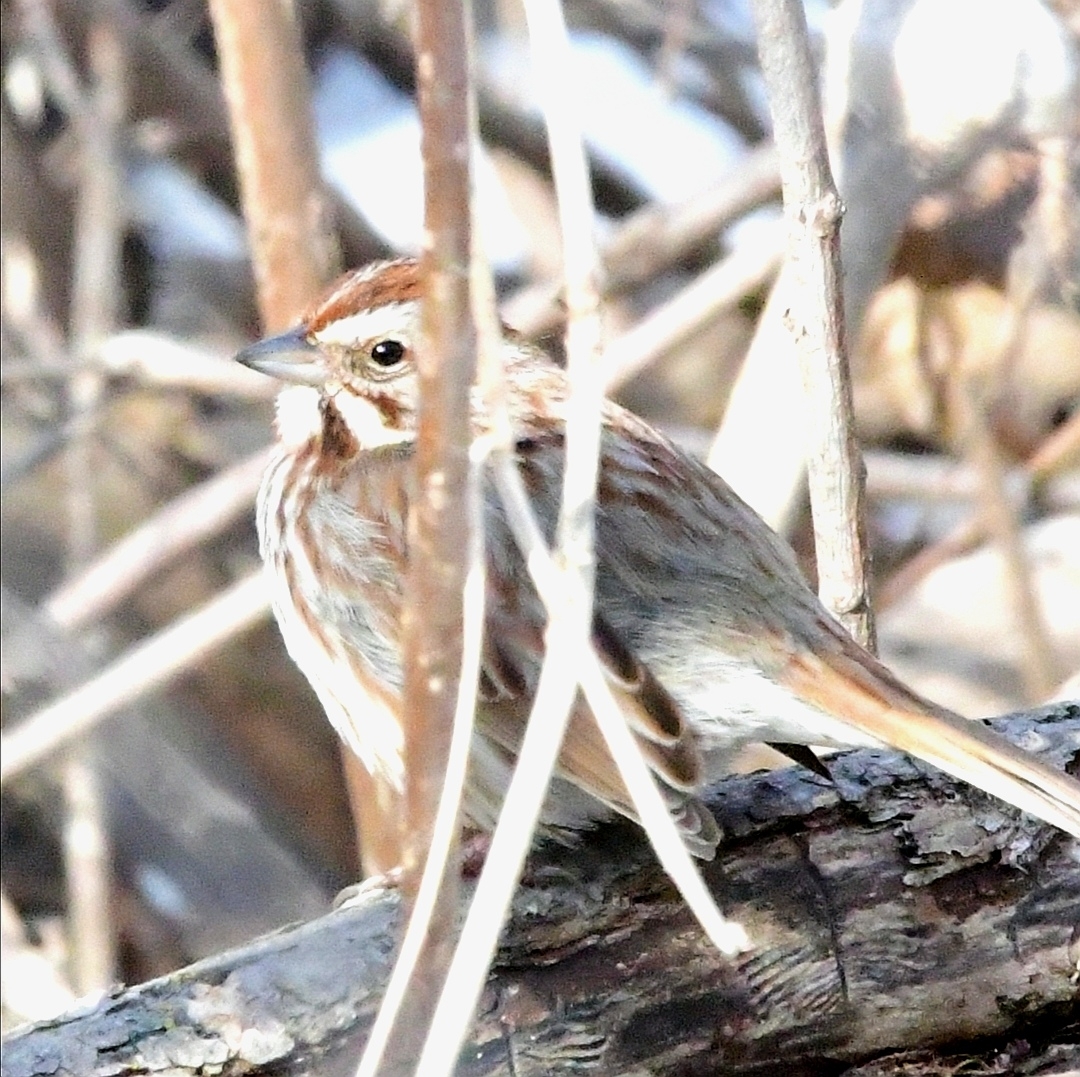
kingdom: Animalia
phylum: Chordata
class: Aves
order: Passeriformes
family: Passerellidae
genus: Melospiza
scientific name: Melospiza melodia
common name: Song sparrow
